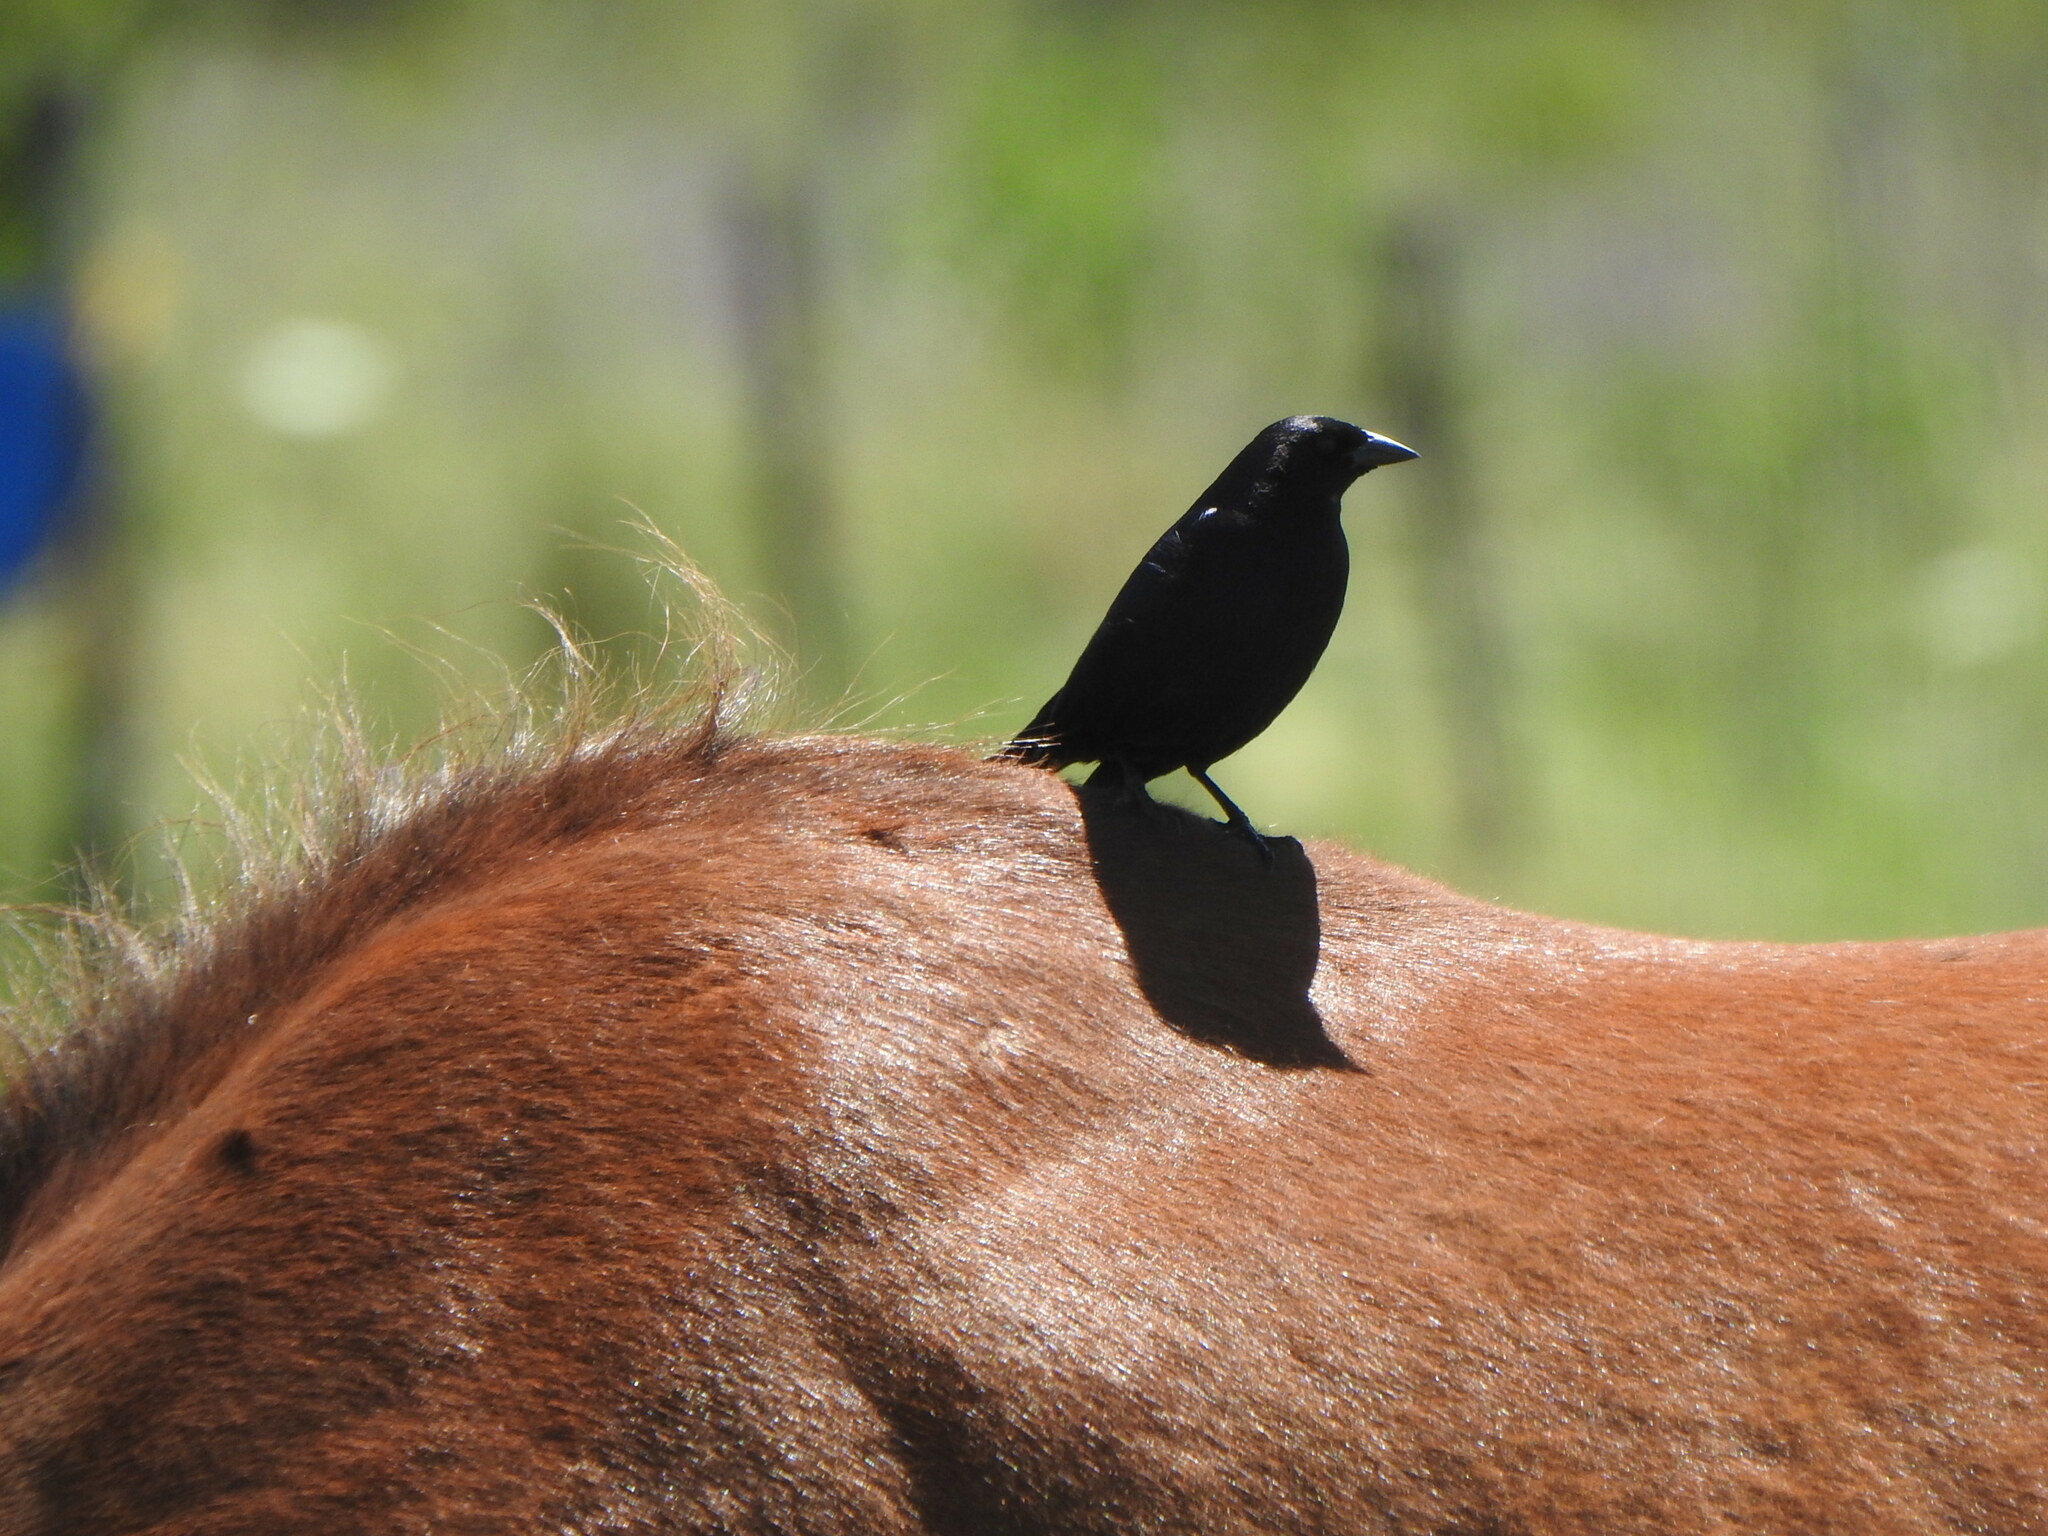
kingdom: Animalia
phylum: Chordata
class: Aves
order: Passeriformes
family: Icteridae
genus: Molothrus
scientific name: Molothrus bonariensis
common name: Shiny cowbird
